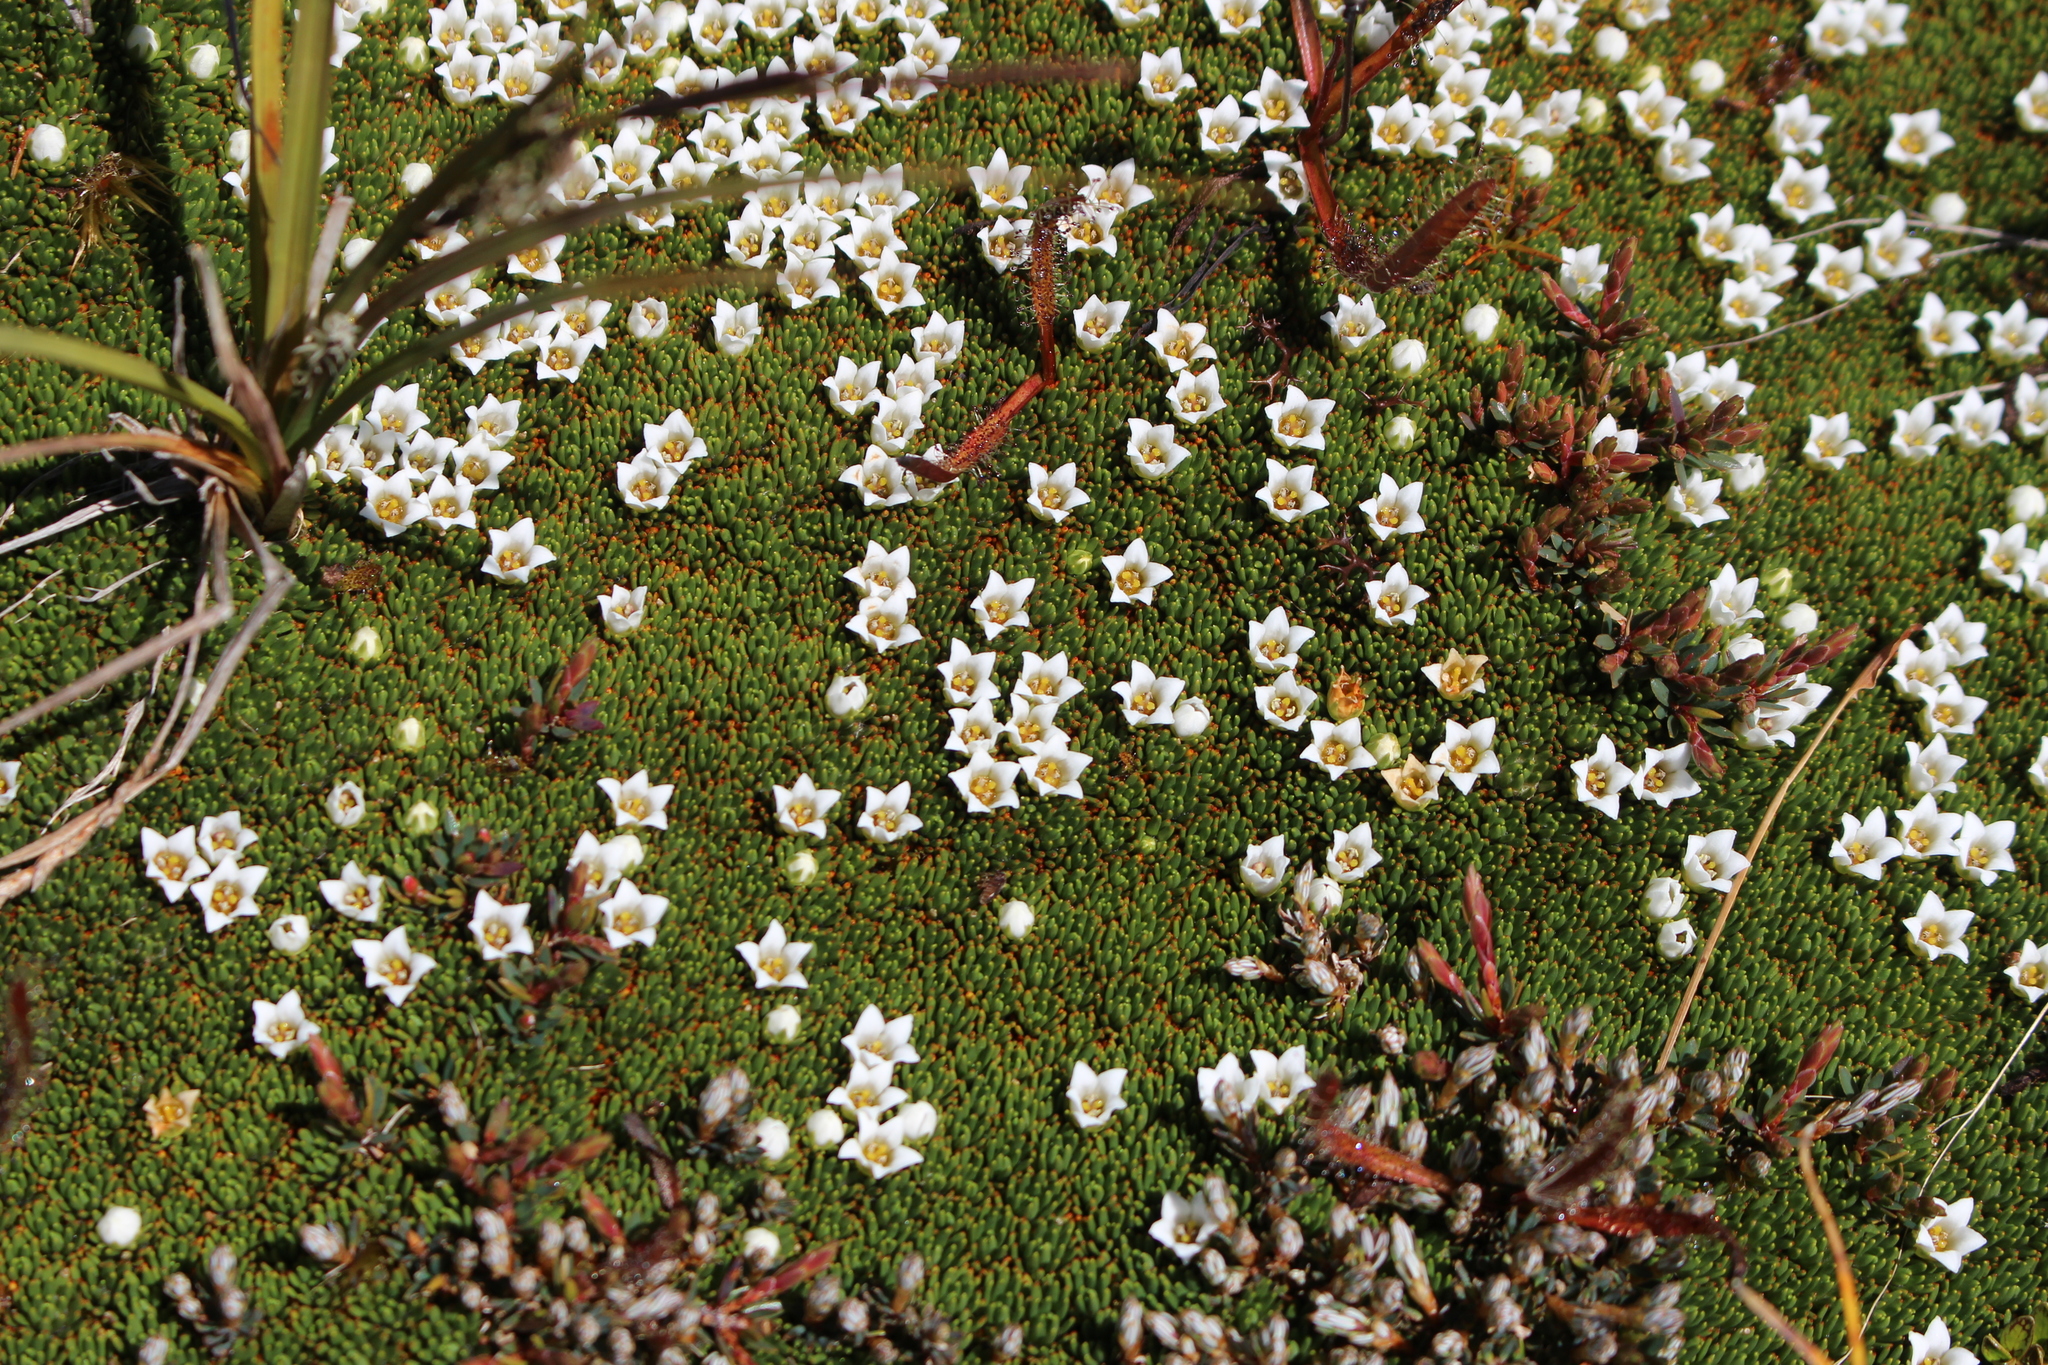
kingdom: Plantae
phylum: Tracheophyta
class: Magnoliopsida
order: Asterales
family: Stylidiaceae
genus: Donatia
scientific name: Donatia novae-zelandiae
